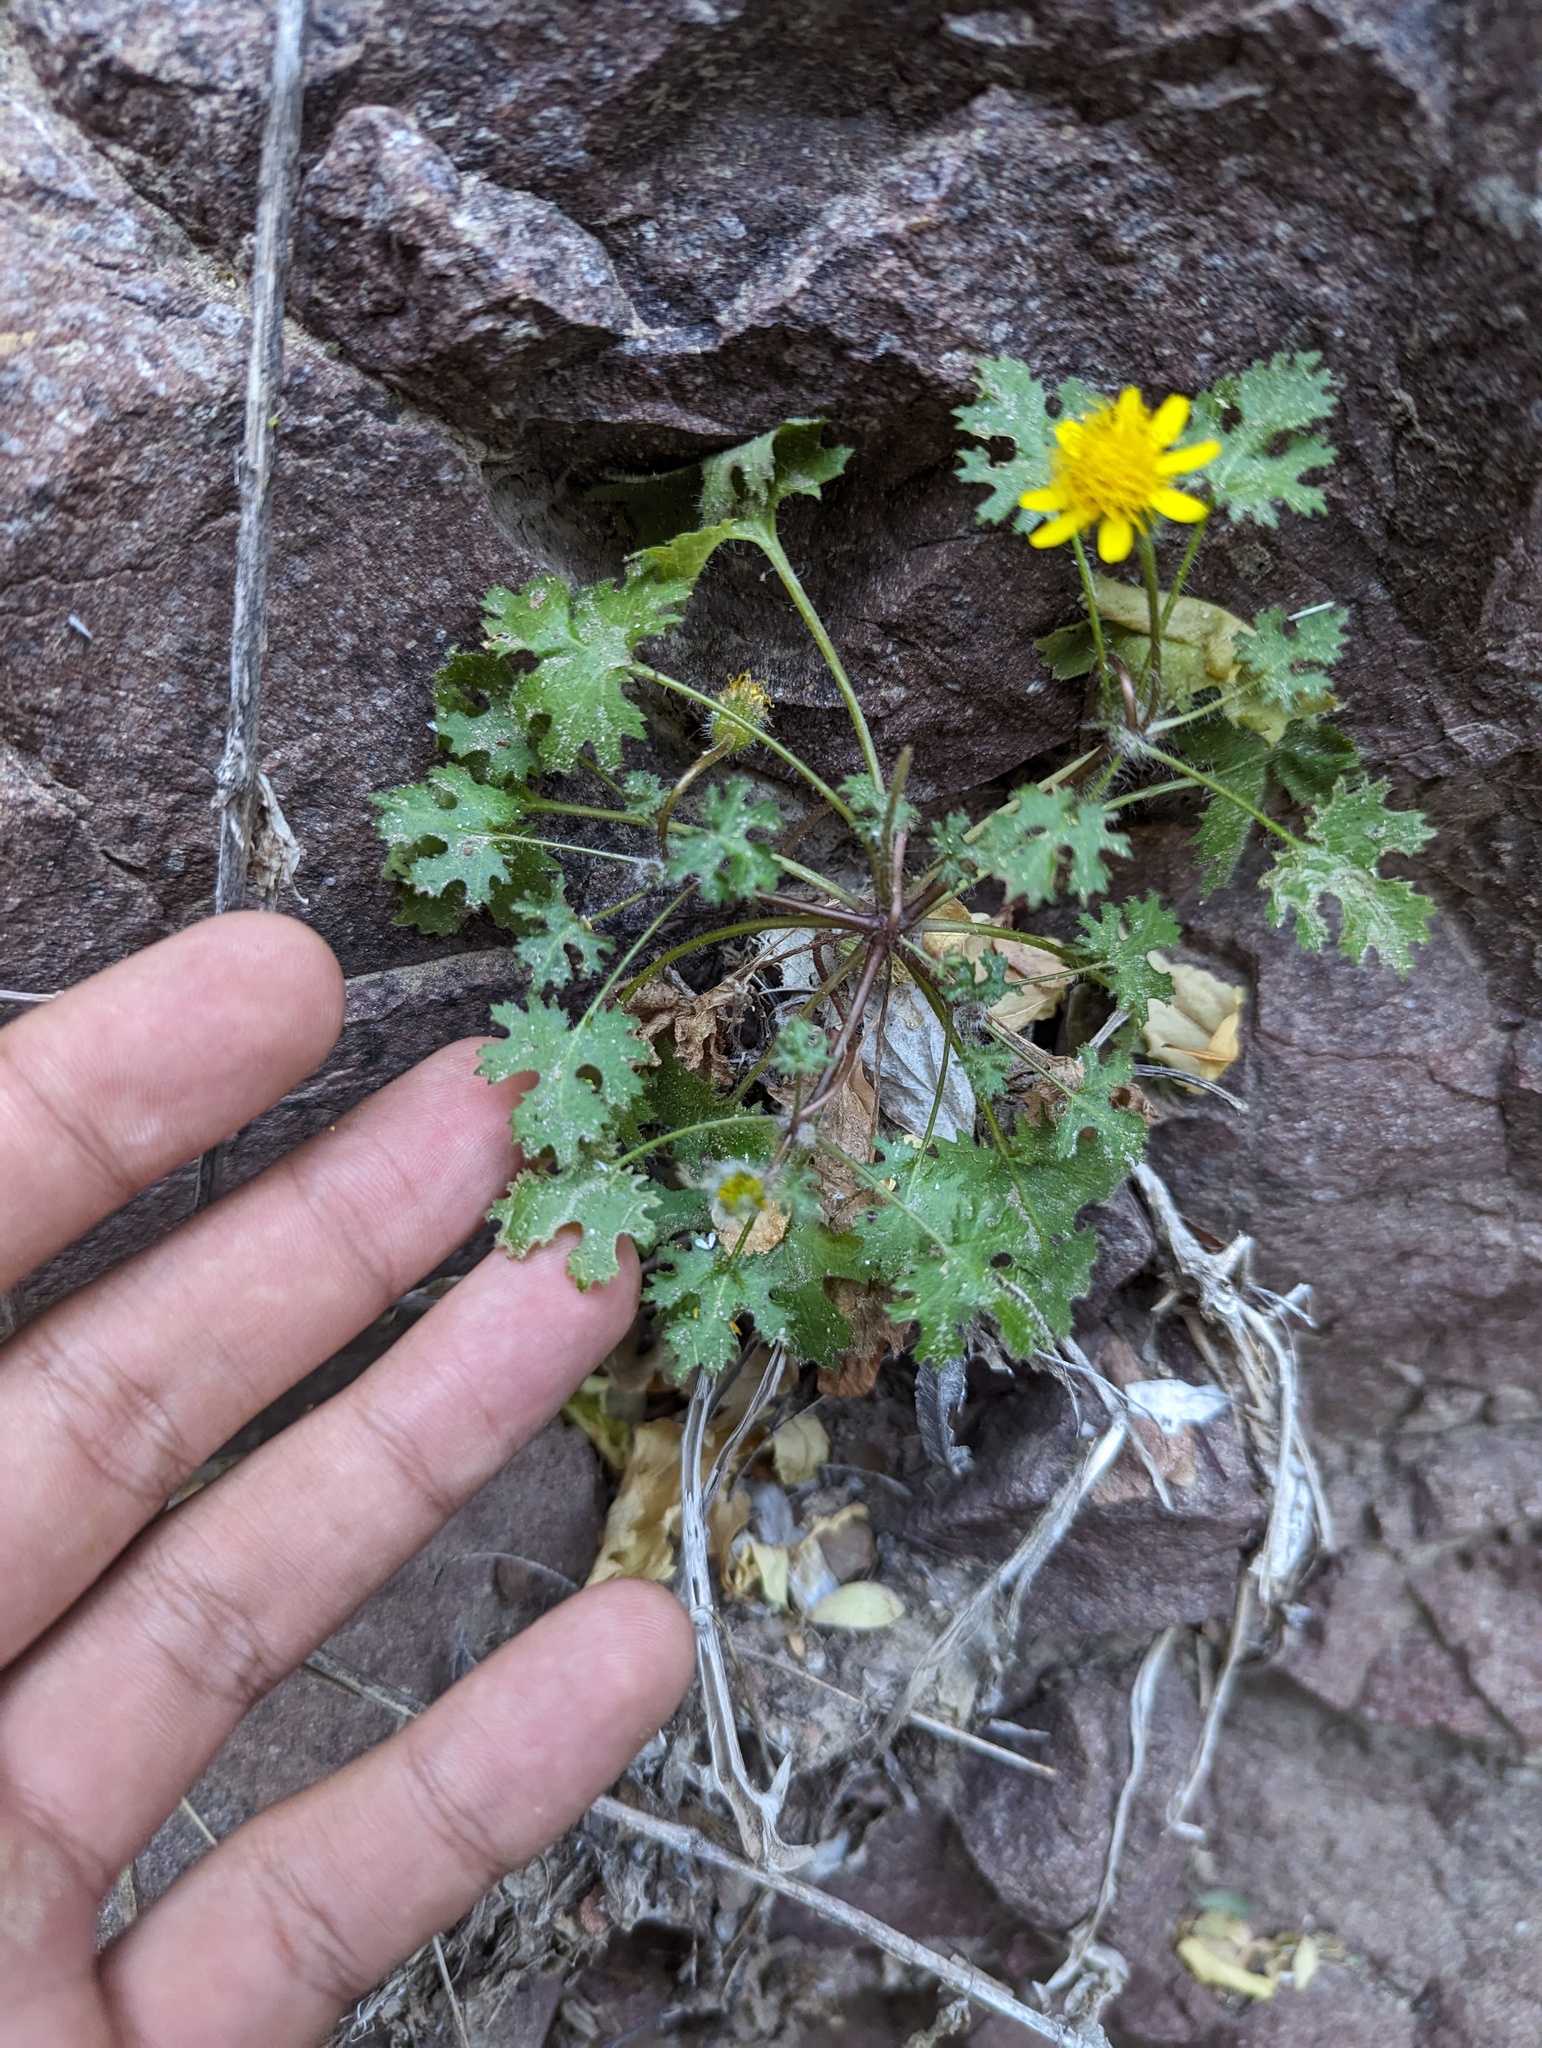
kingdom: Plantae
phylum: Tracheophyta
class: Magnoliopsida
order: Asterales
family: Asteraceae
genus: Laphamia
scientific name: Laphamia lobata
